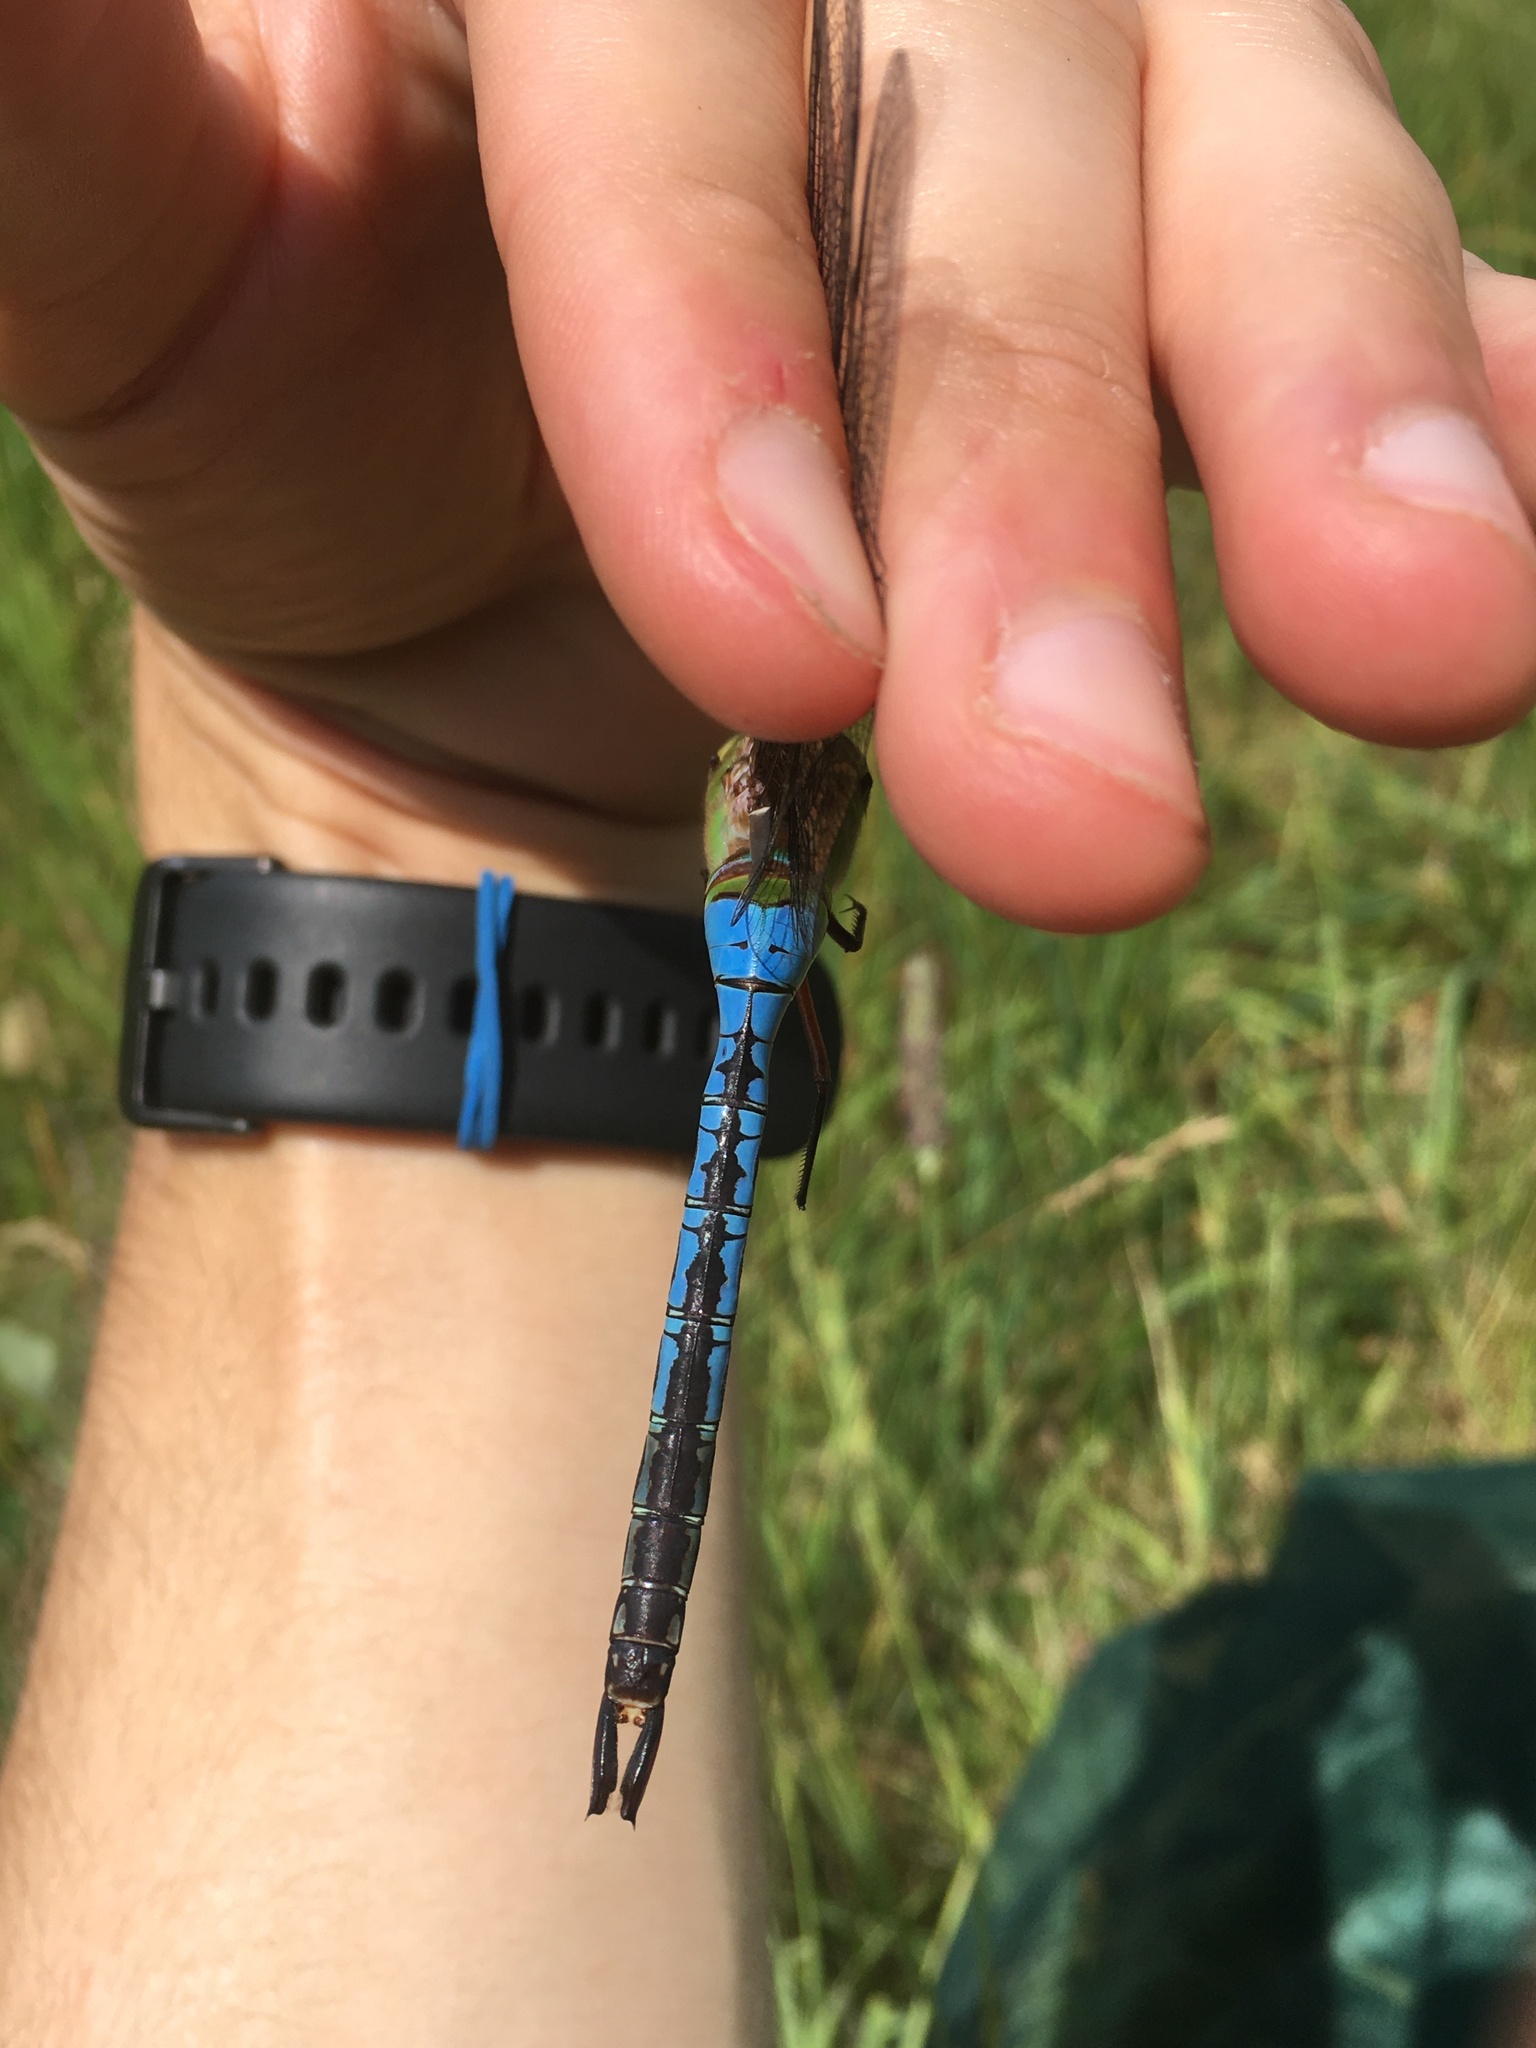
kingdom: Animalia
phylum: Arthropoda
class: Insecta
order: Odonata
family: Aeshnidae
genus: Anax
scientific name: Anax junius
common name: Common green darner
